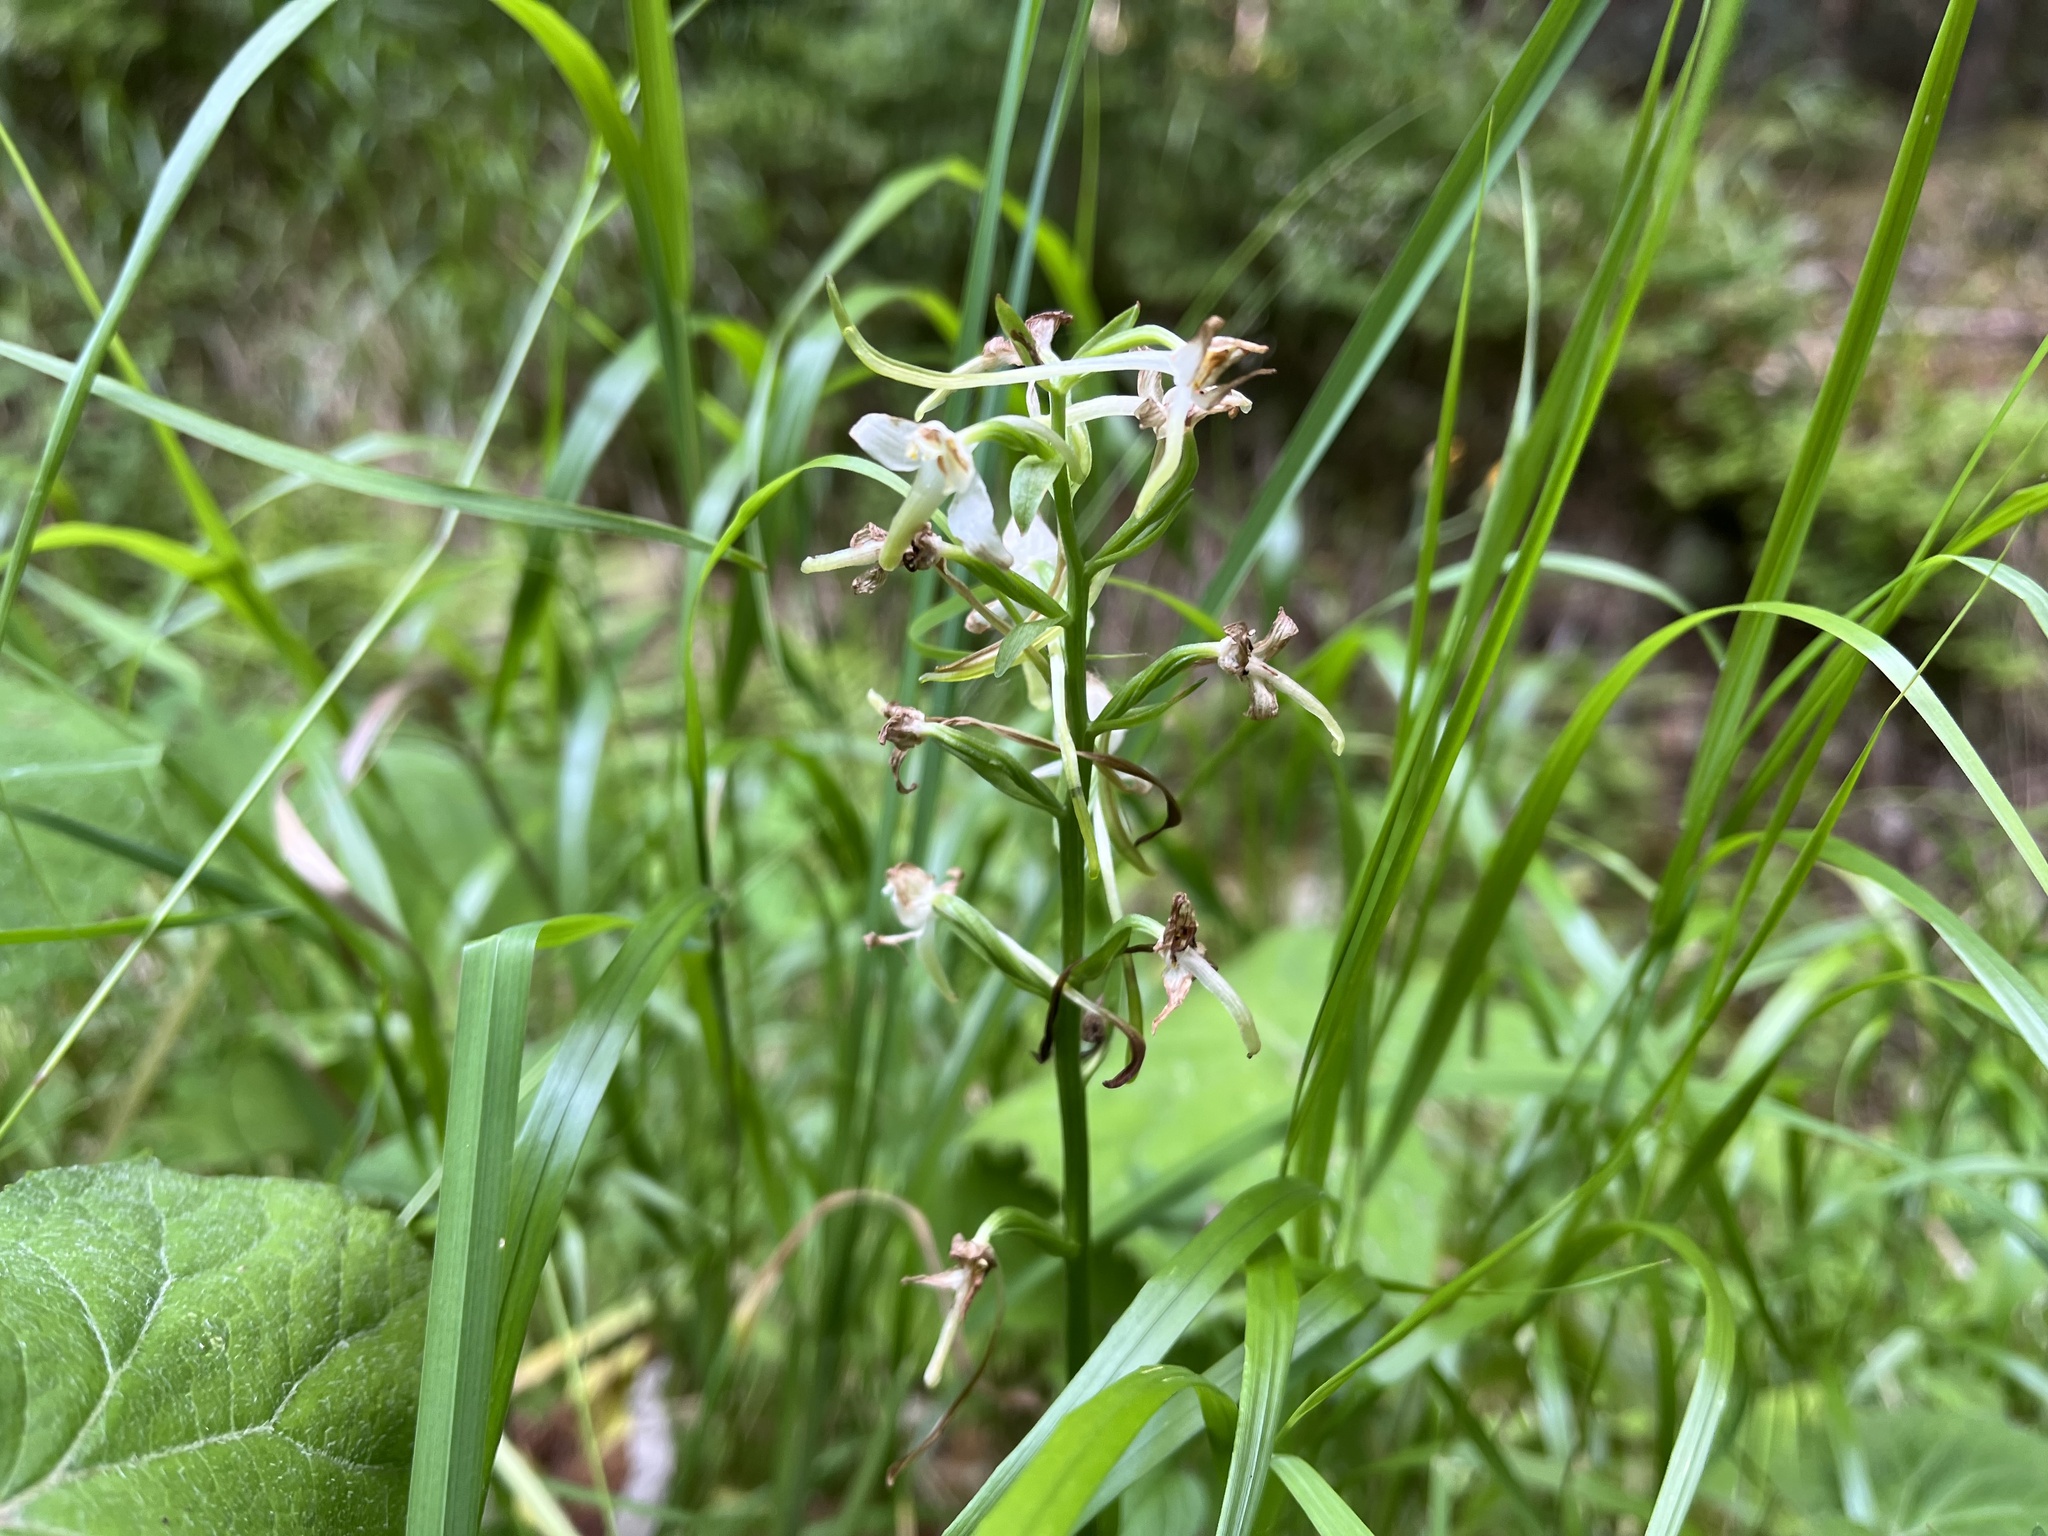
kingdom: Plantae
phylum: Tracheophyta
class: Liliopsida
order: Asparagales
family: Orchidaceae
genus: Platanthera
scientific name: Platanthera chlorantha
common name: Greater butterfly-orchid
